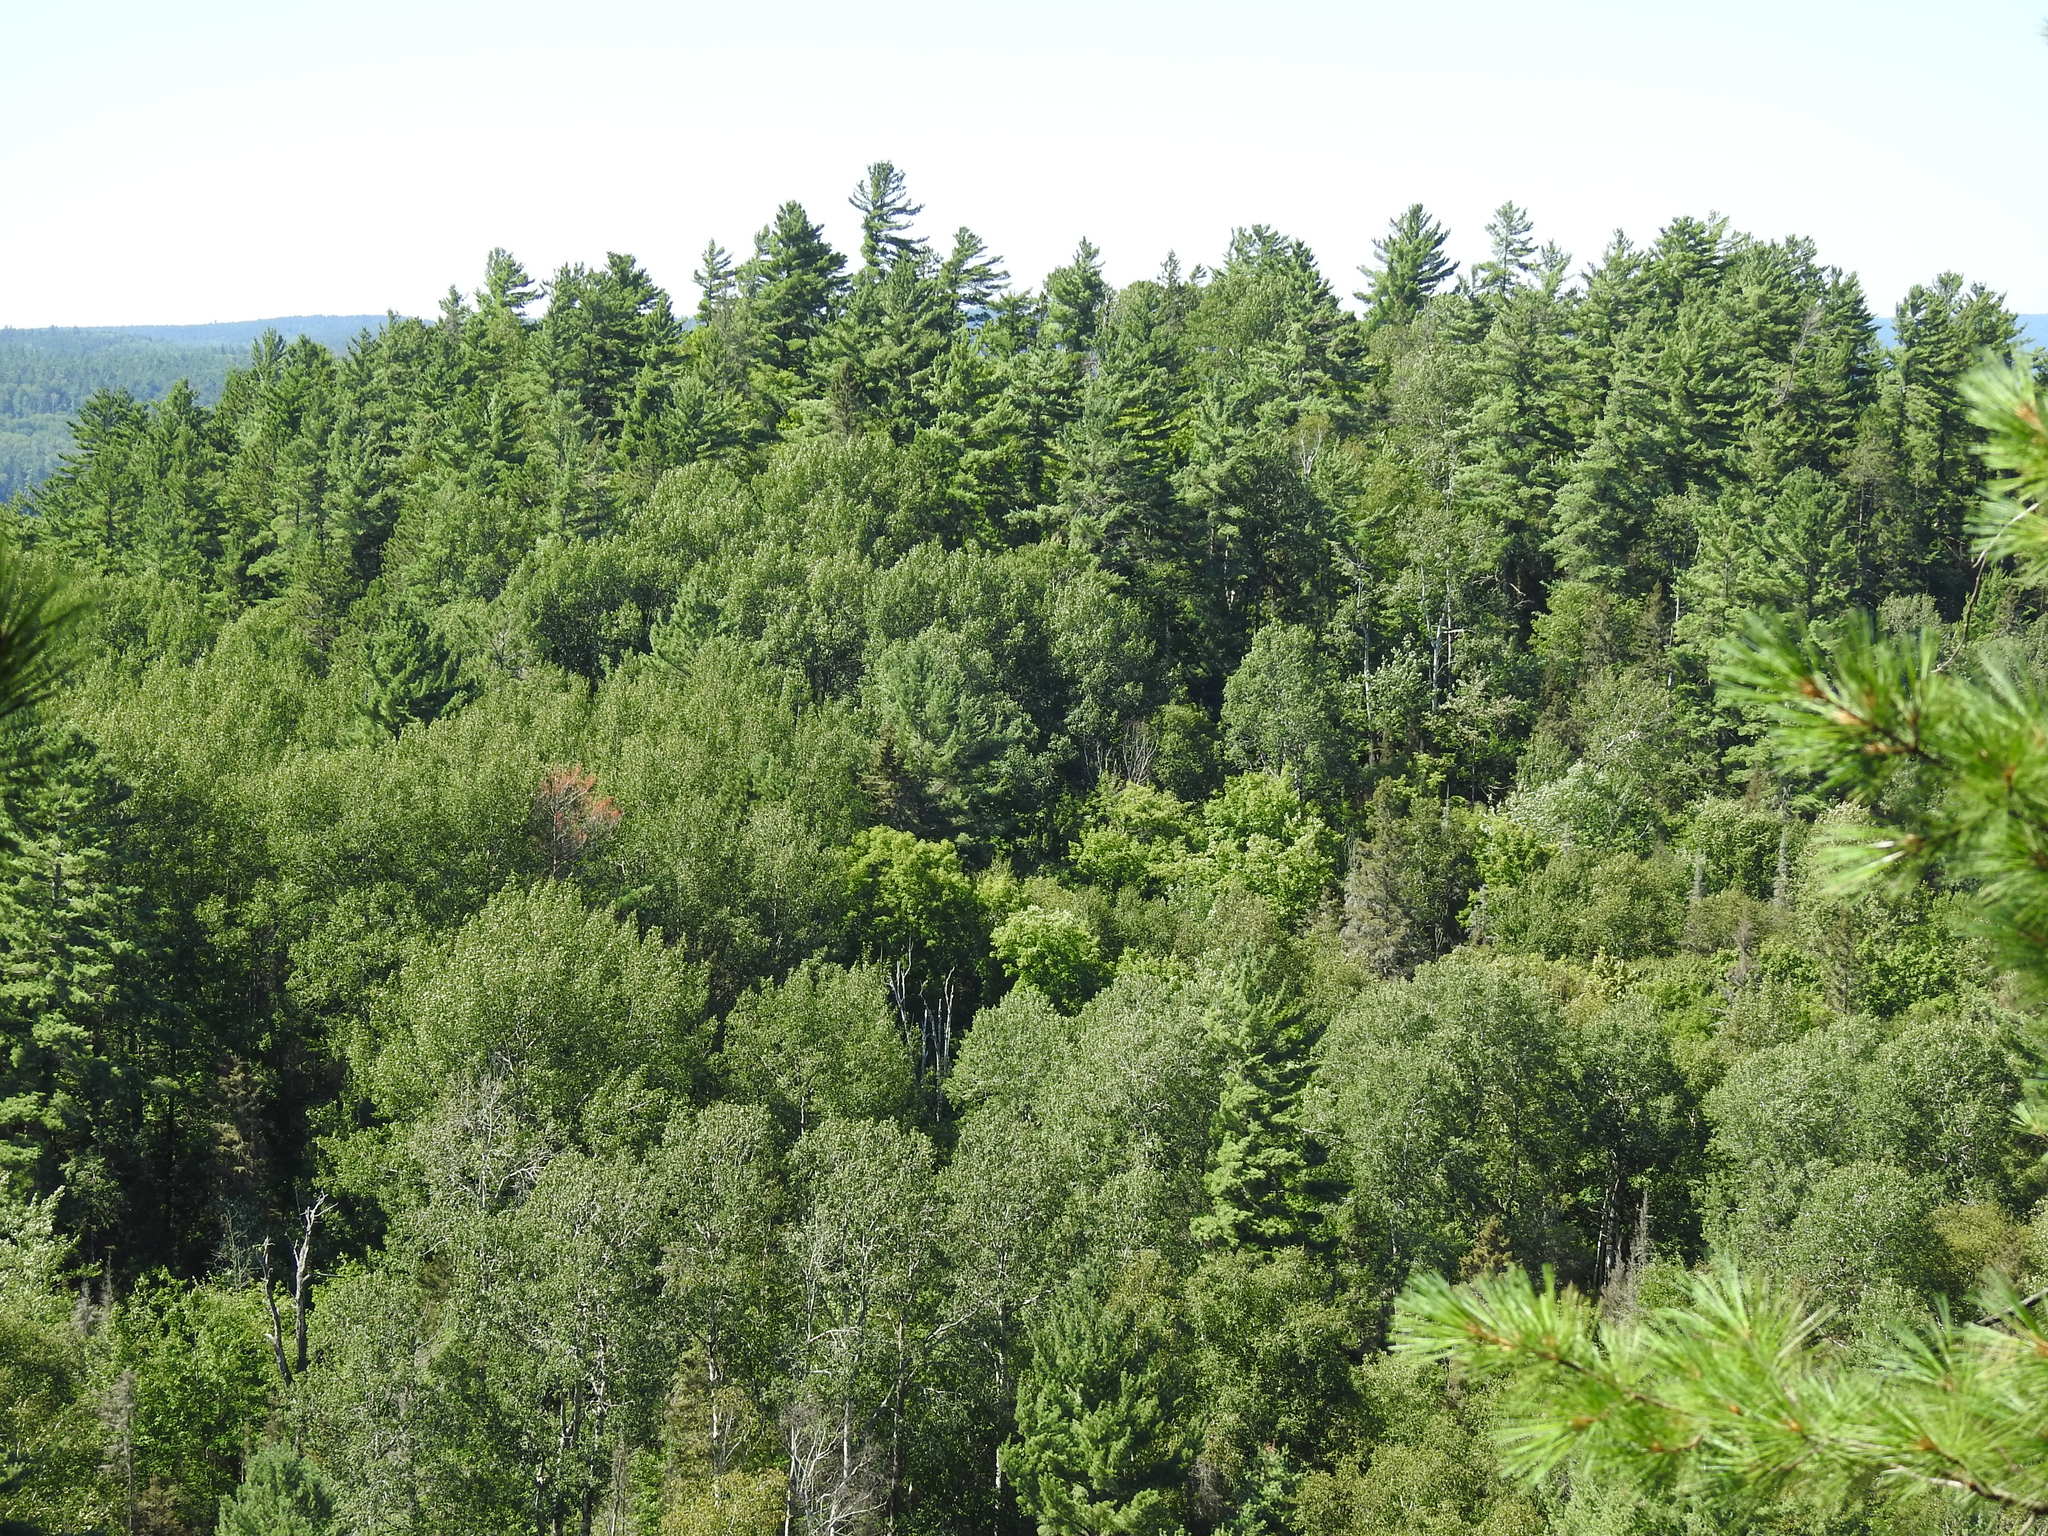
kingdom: Plantae
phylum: Tracheophyta
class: Pinopsida
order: Pinales
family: Pinaceae
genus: Pinus
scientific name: Pinus strobus
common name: Weymouth pine
